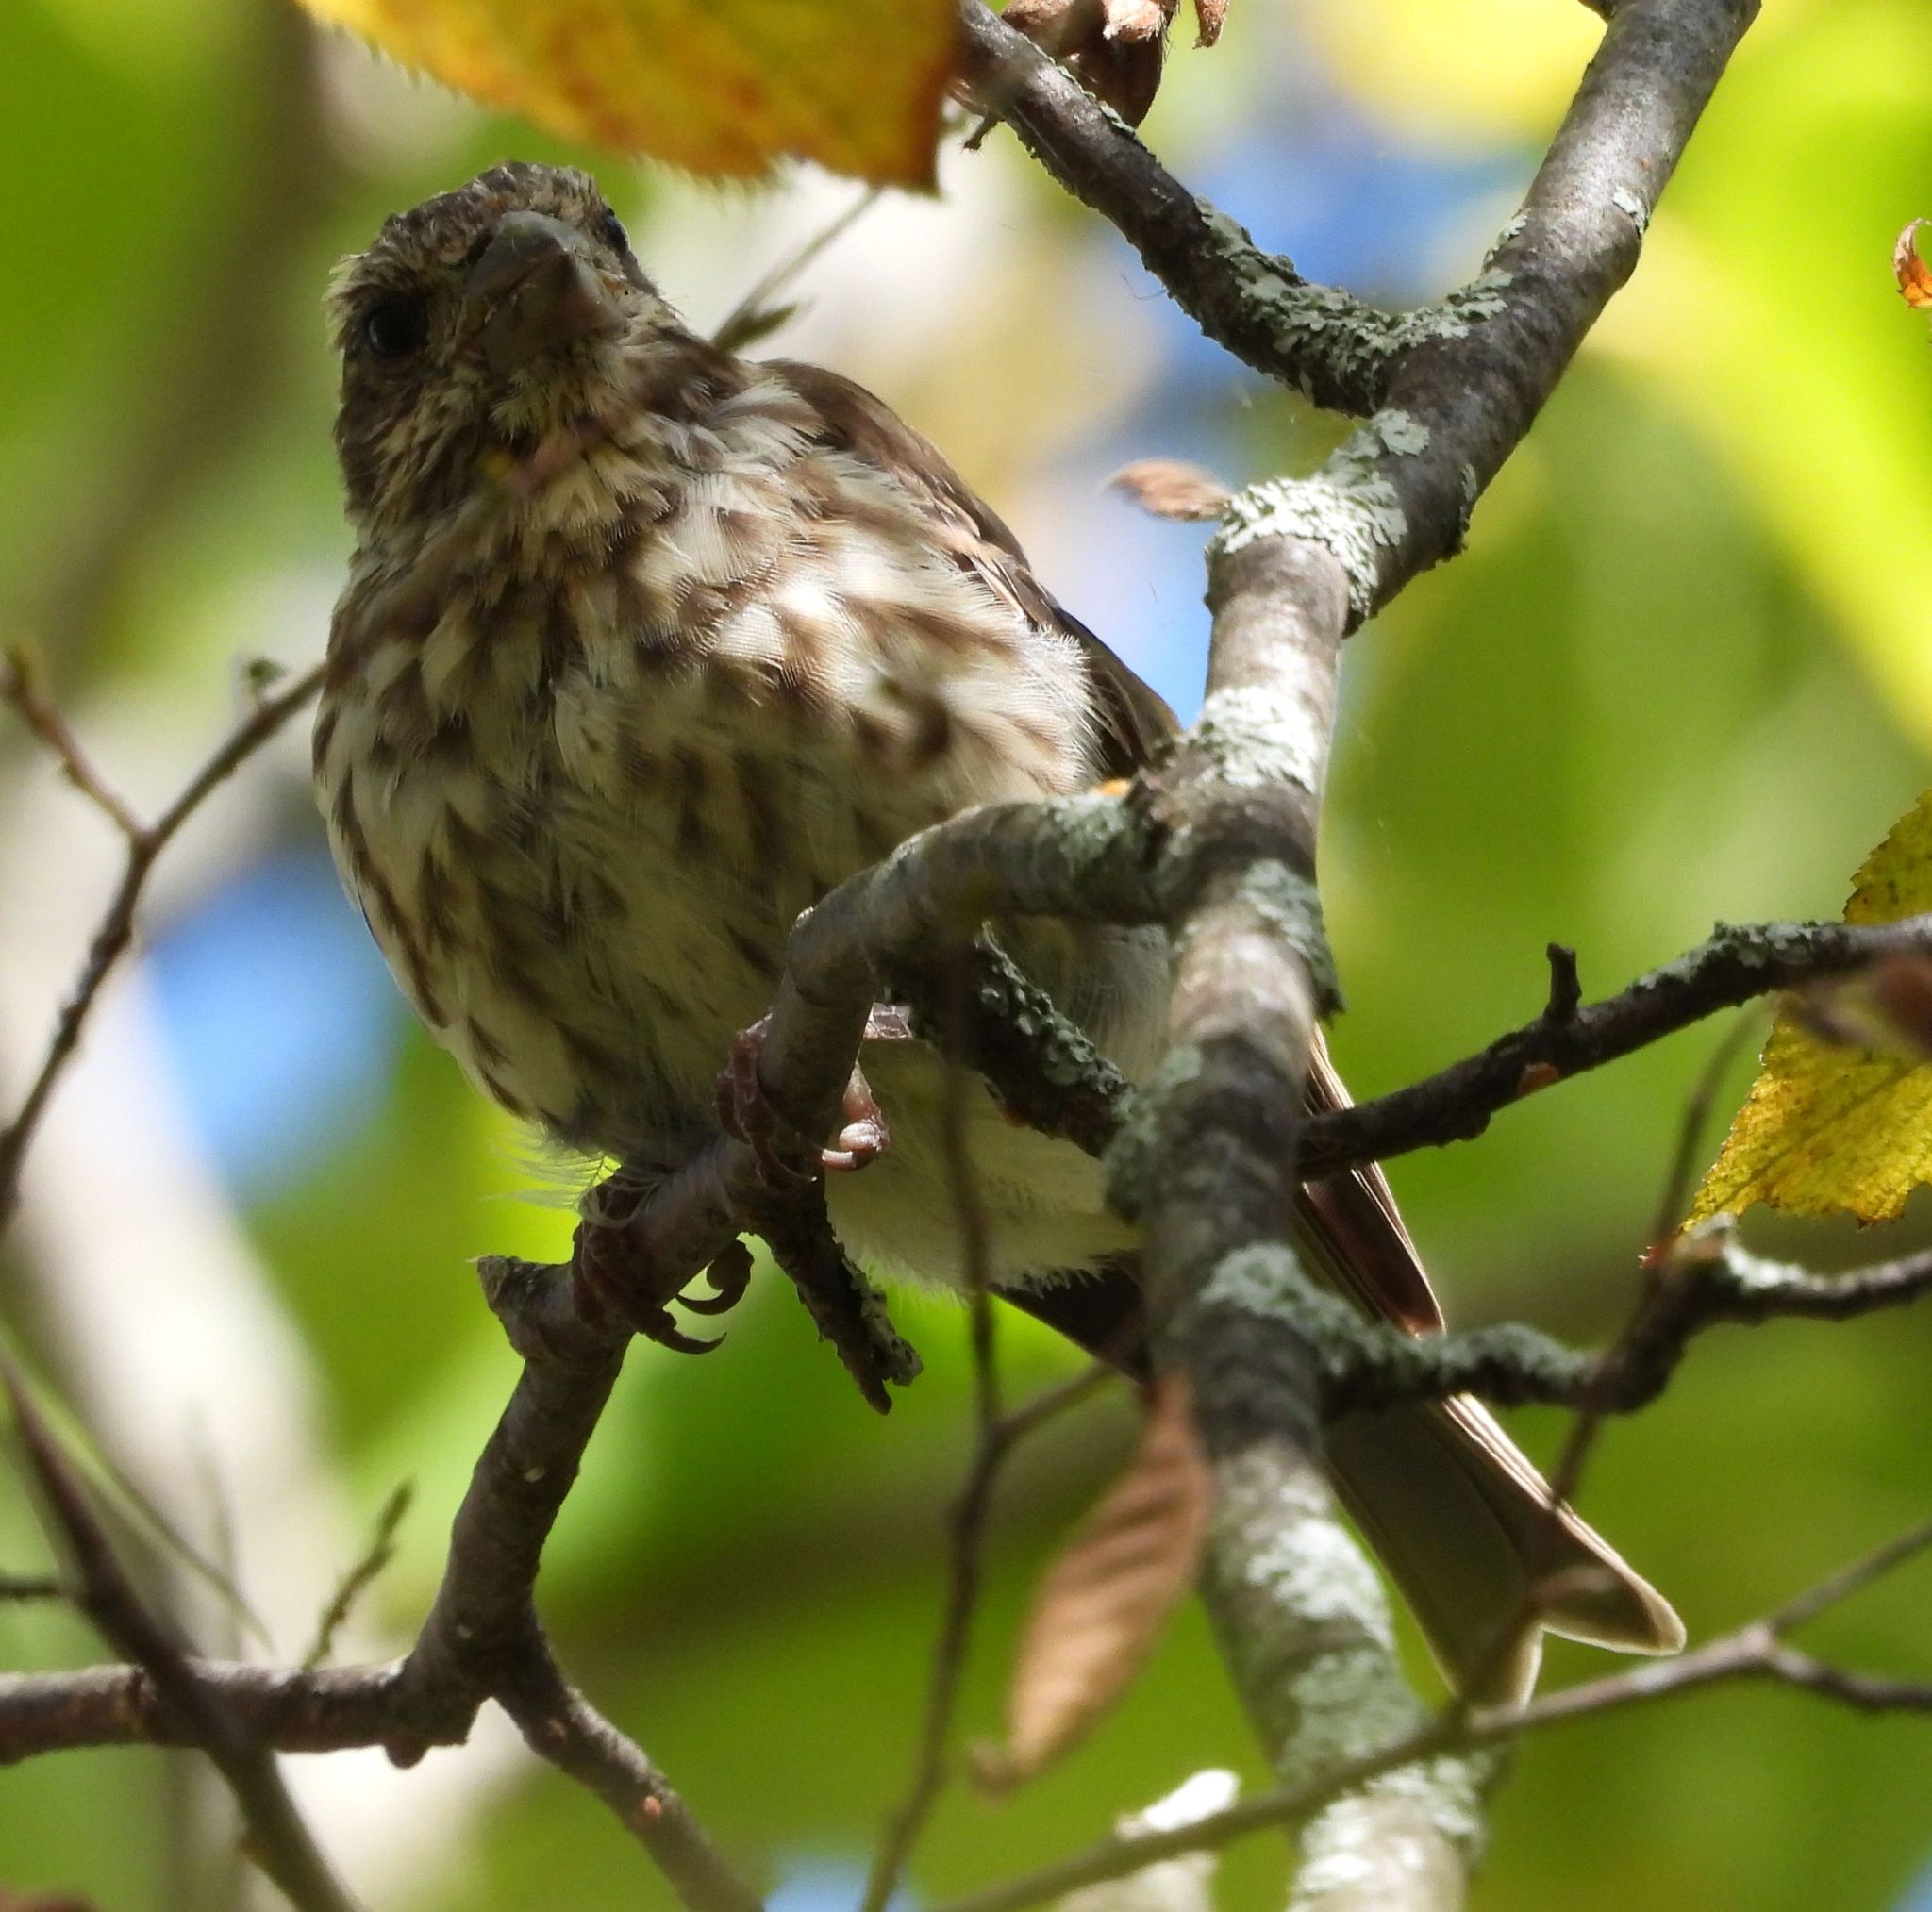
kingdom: Animalia
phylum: Chordata
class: Aves
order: Passeriformes
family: Fringillidae
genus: Haemorhous
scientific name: Haemorhous purpureus
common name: Purple finch
